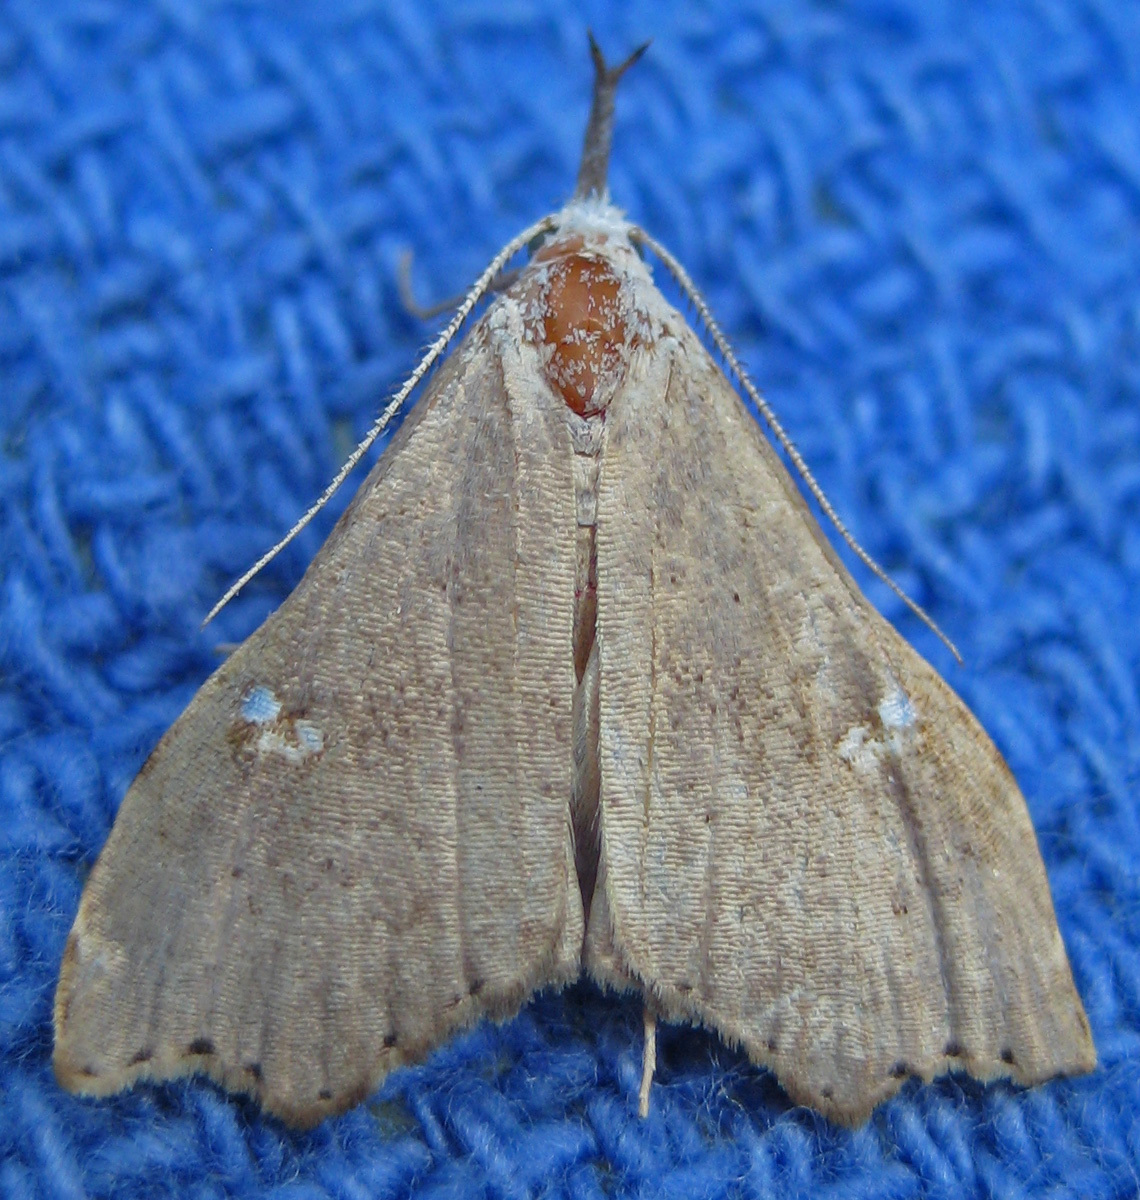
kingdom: Animalia
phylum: Arthropoda
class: Insecta
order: Lepidoptera
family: Erebidae
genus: Redectis
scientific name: Redectis vitrea
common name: White-spotted redectis
